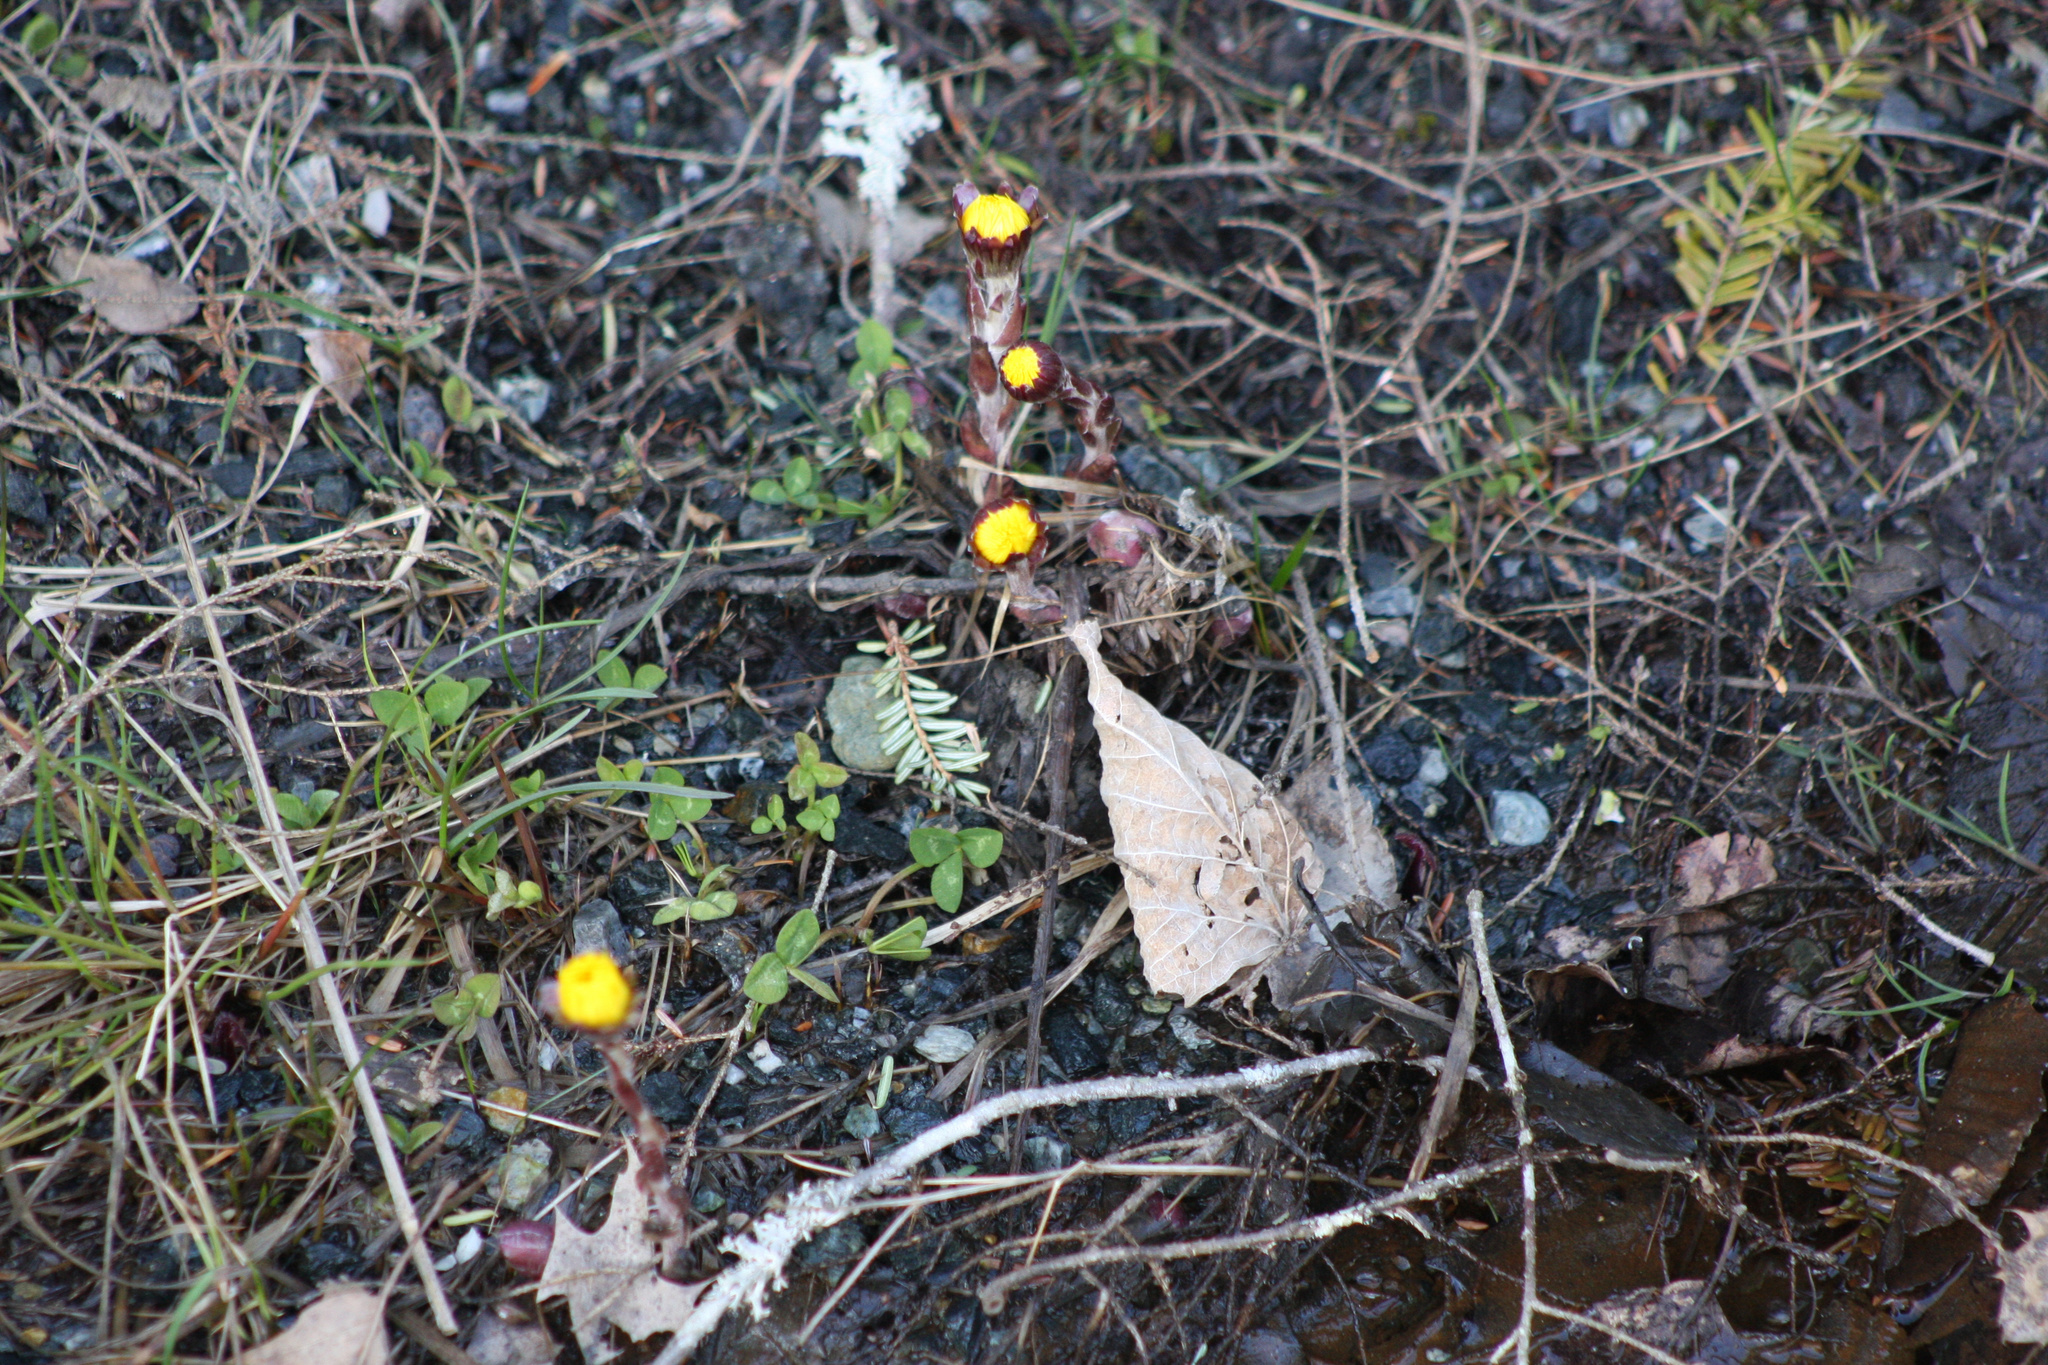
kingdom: Plantae
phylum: Tracheophyta
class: Magnoliopsida
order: Asterales
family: Asteraceae
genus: Tussilago
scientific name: Tussilago farfara
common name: Coltsfoot
